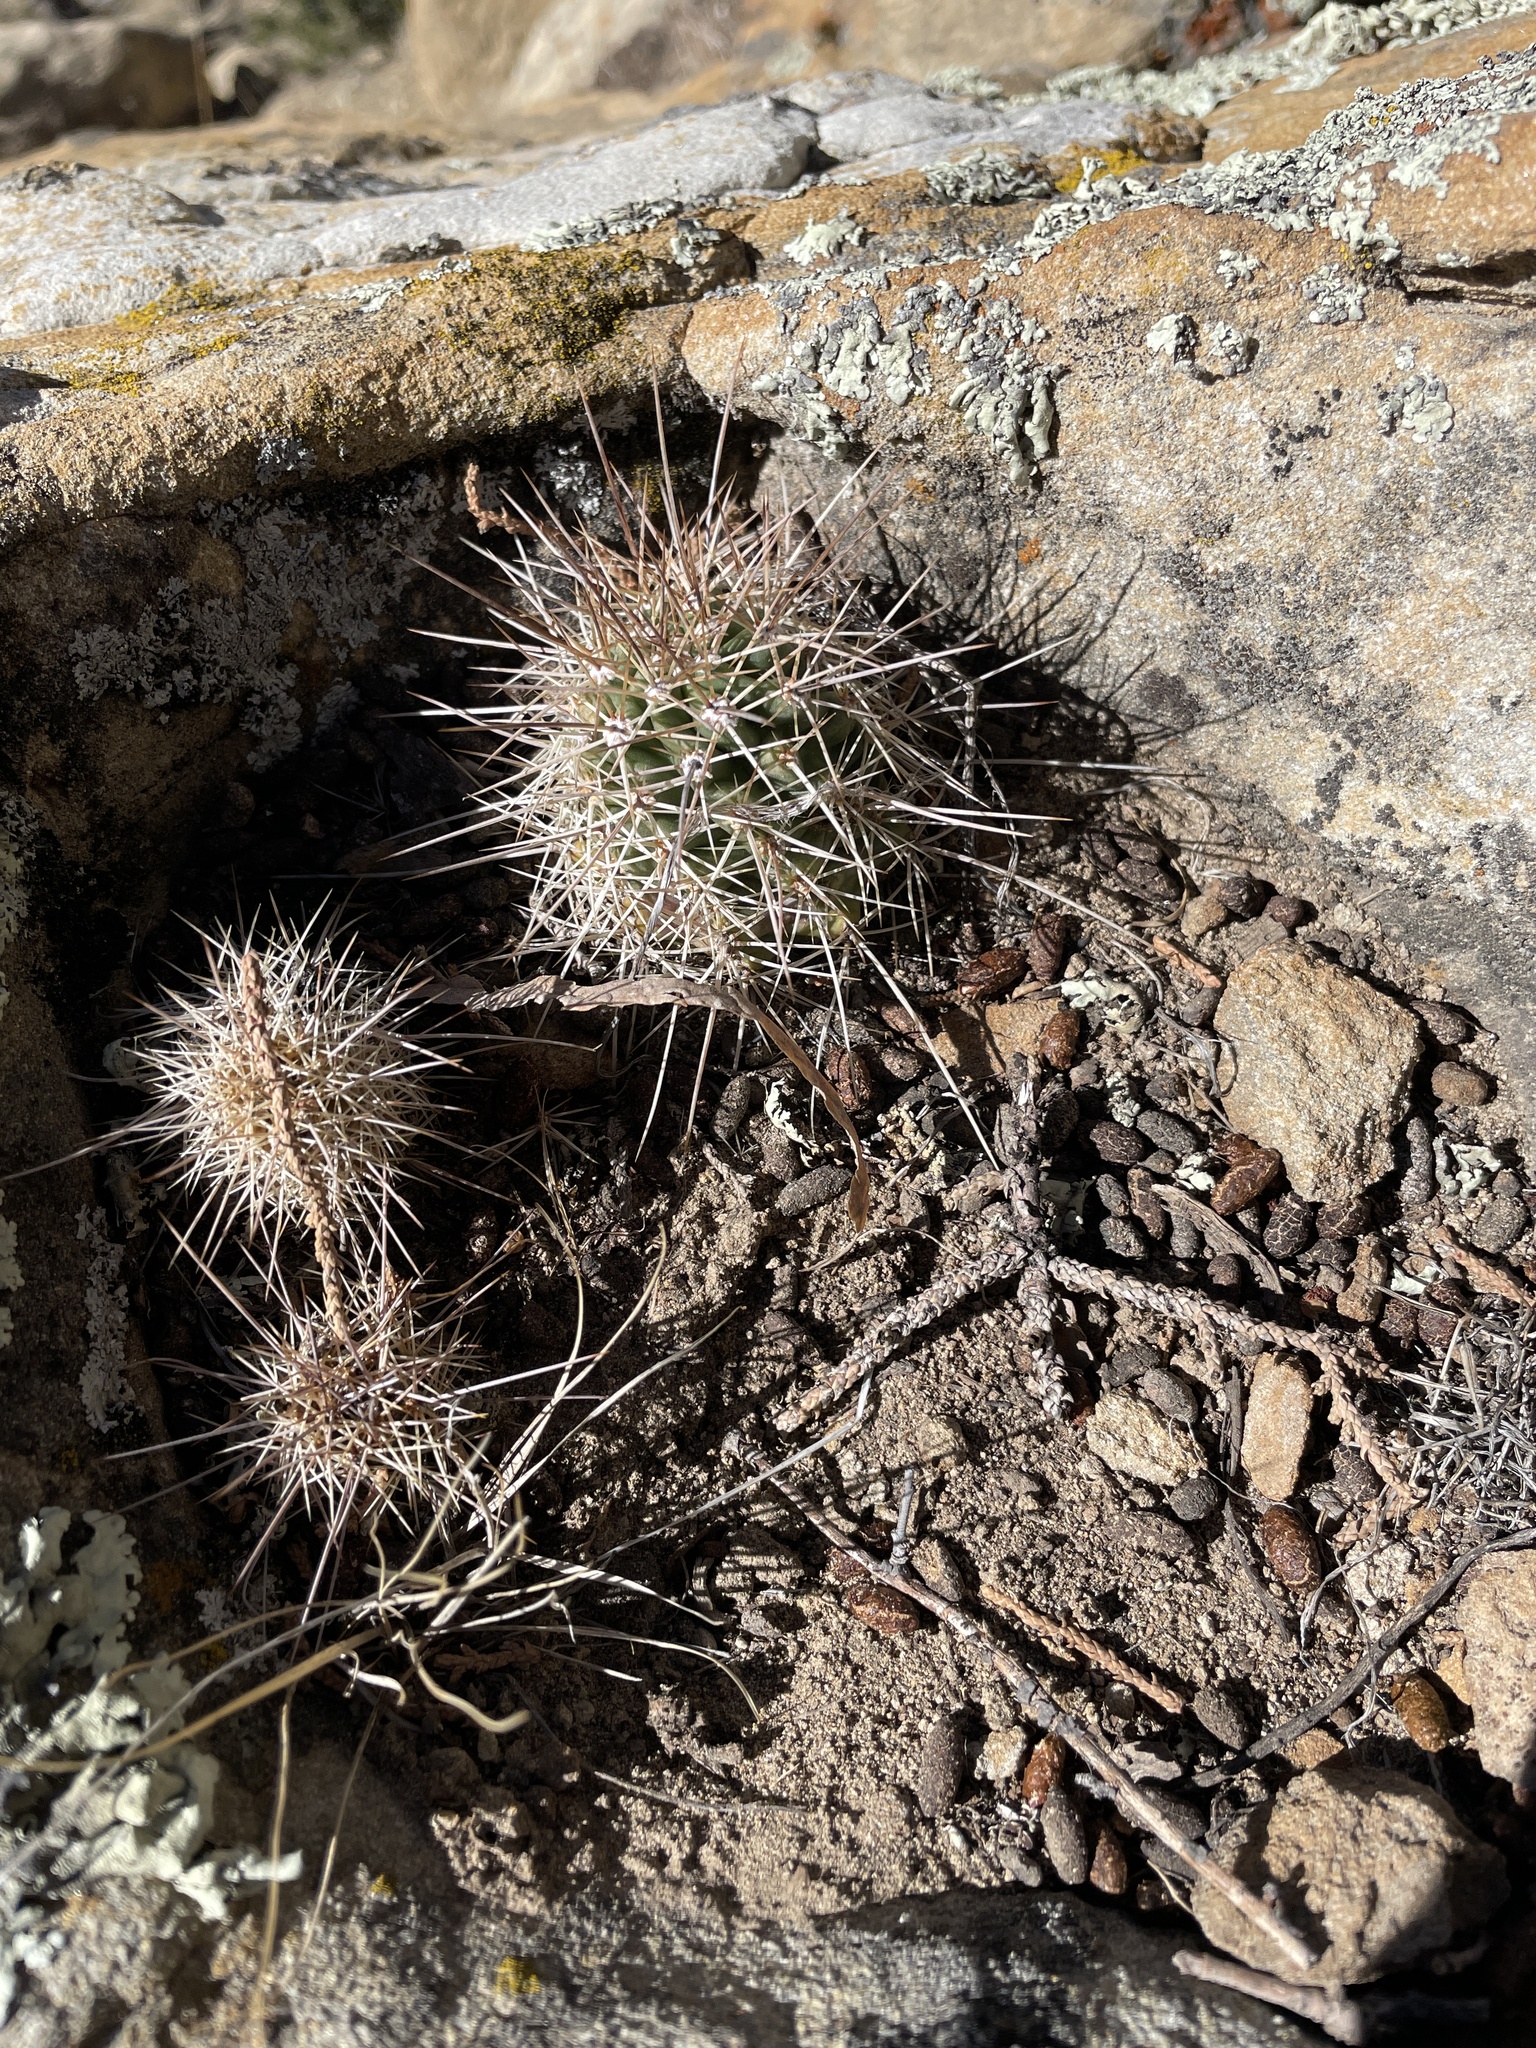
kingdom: Plantae
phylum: Tracheophyta
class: Magnoliopsida
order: Caryophyllales
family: Cactaceae
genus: Echinocereus
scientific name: Echinocereus coccineus
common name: Scarlet hedgehog cactus
